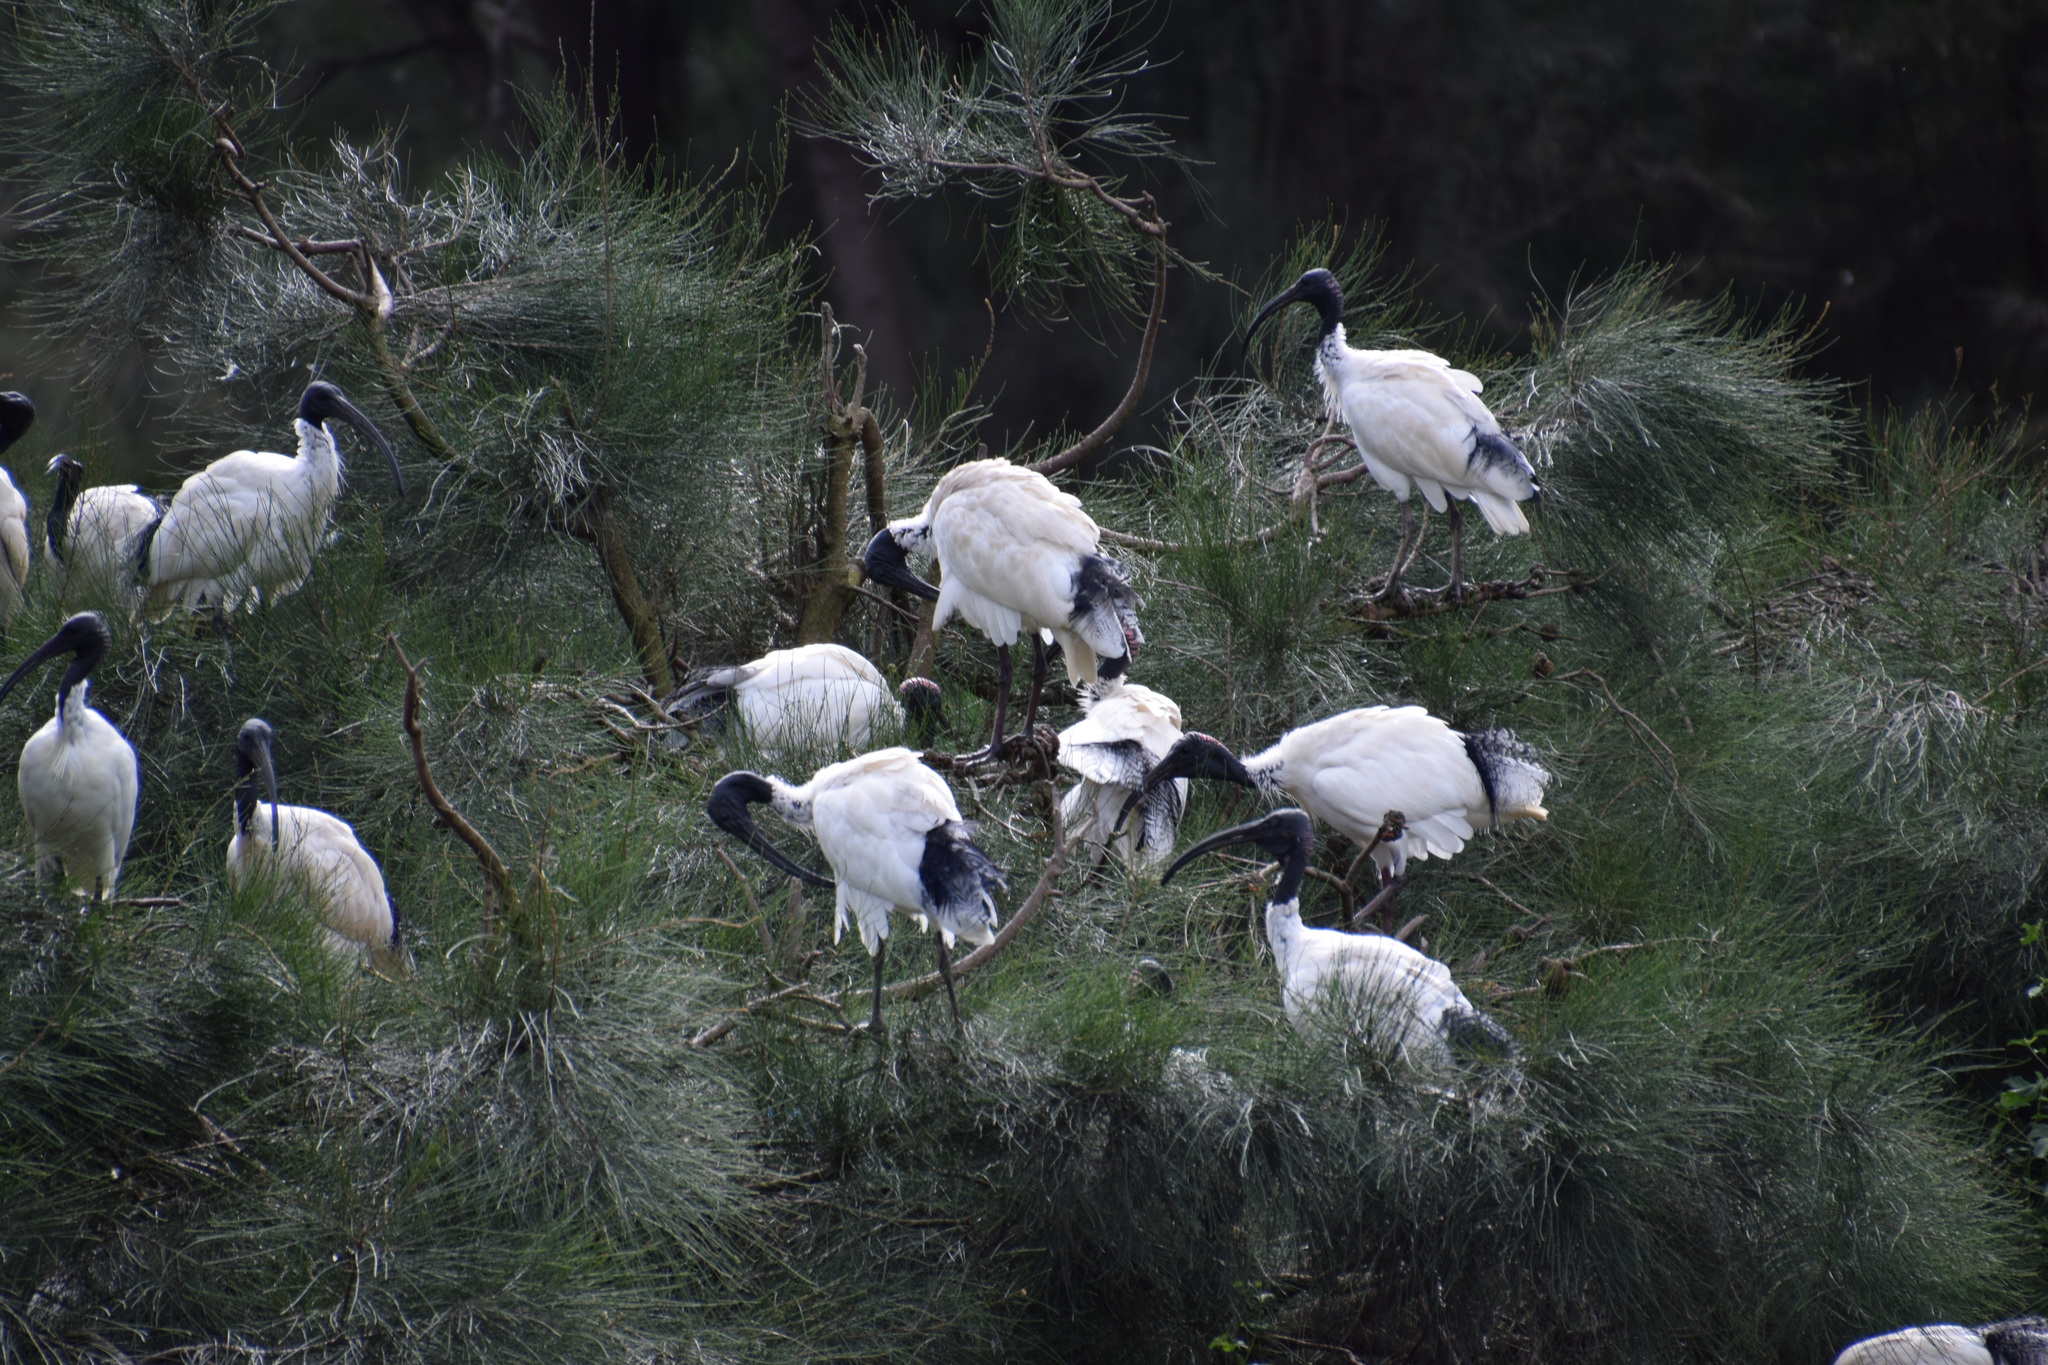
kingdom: Animalia
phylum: Chordata
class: Aves
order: Pelecaniformes
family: Threskiornithidae
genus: Threskiornis
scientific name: Threskiornis molucca
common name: Australian white ibis
